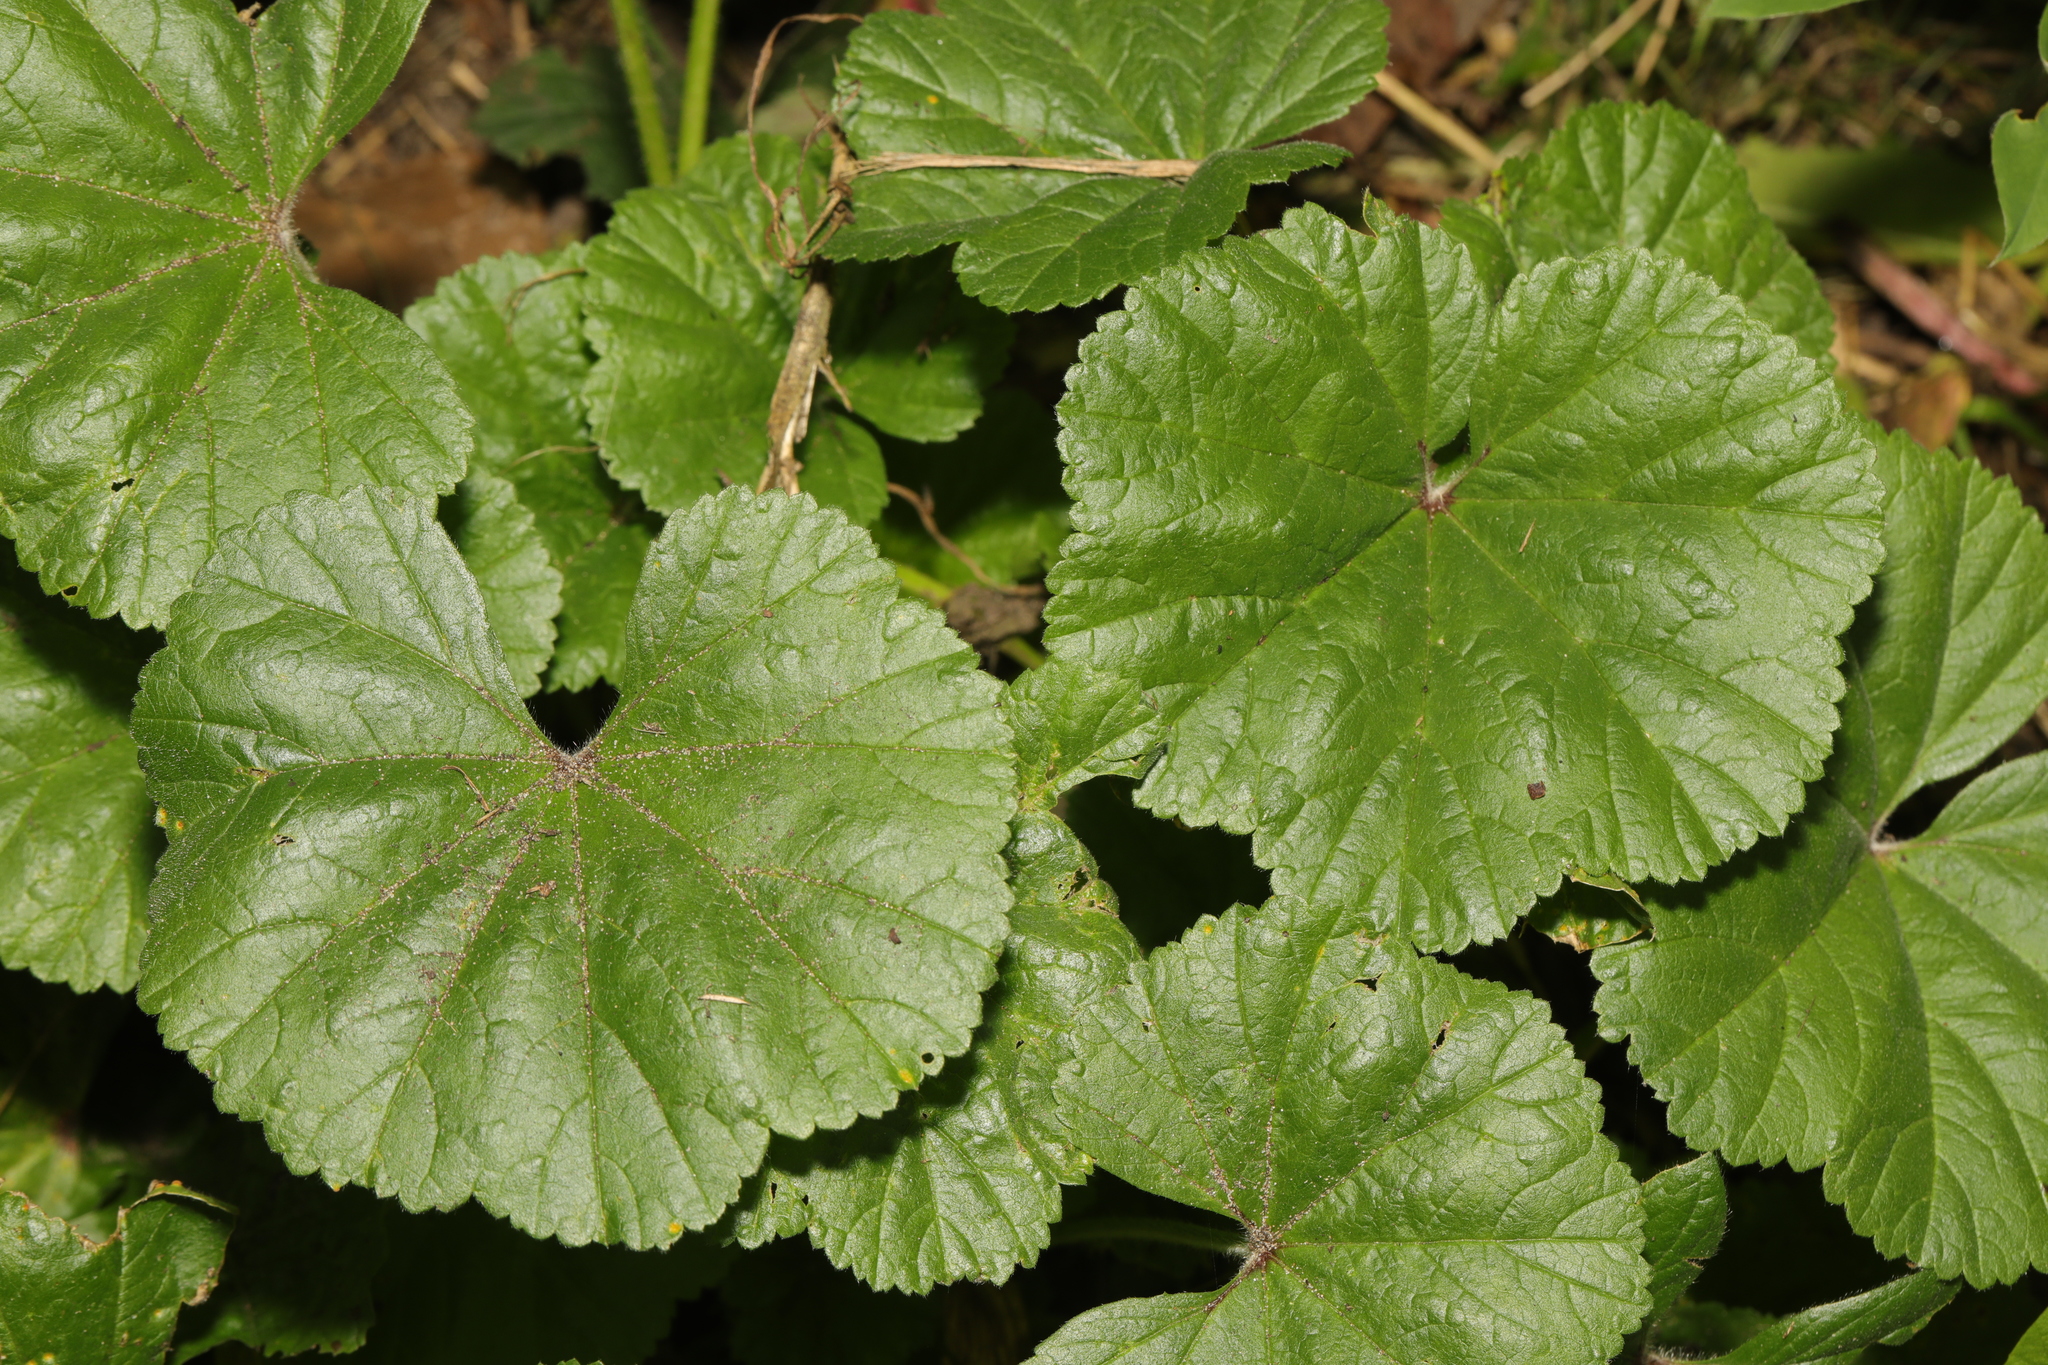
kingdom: Plantae
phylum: Tracheophyta
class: Magnoliopsida
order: Malvales
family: Malvaceae
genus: Malva
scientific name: Malva sylvestris
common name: Common mallow
